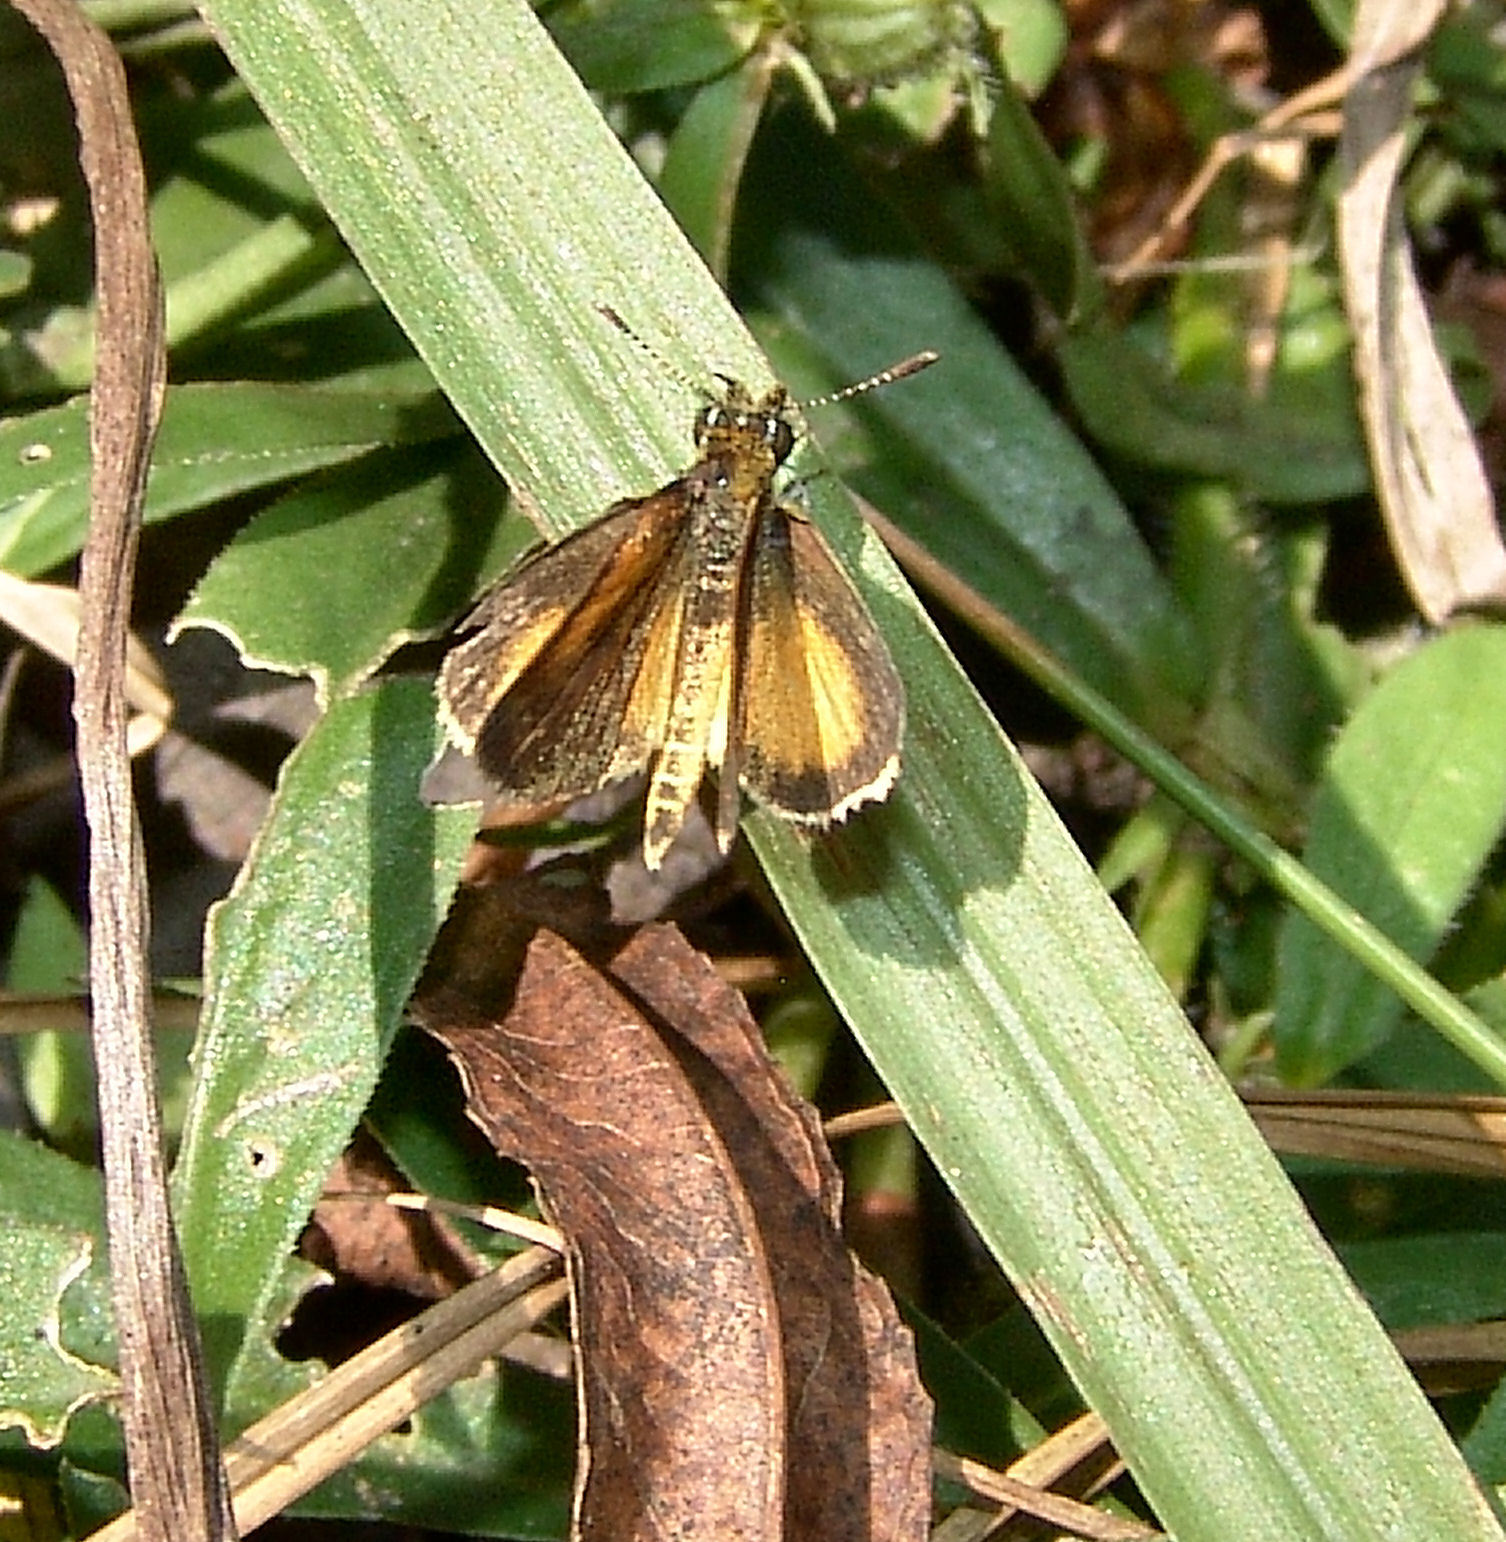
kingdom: Animalia
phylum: Arthropoda
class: Insecta
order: Lepidoptera
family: Hesperiidae
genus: Ancyloxypha
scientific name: Ancyloxypha numitor
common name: Least skipper
